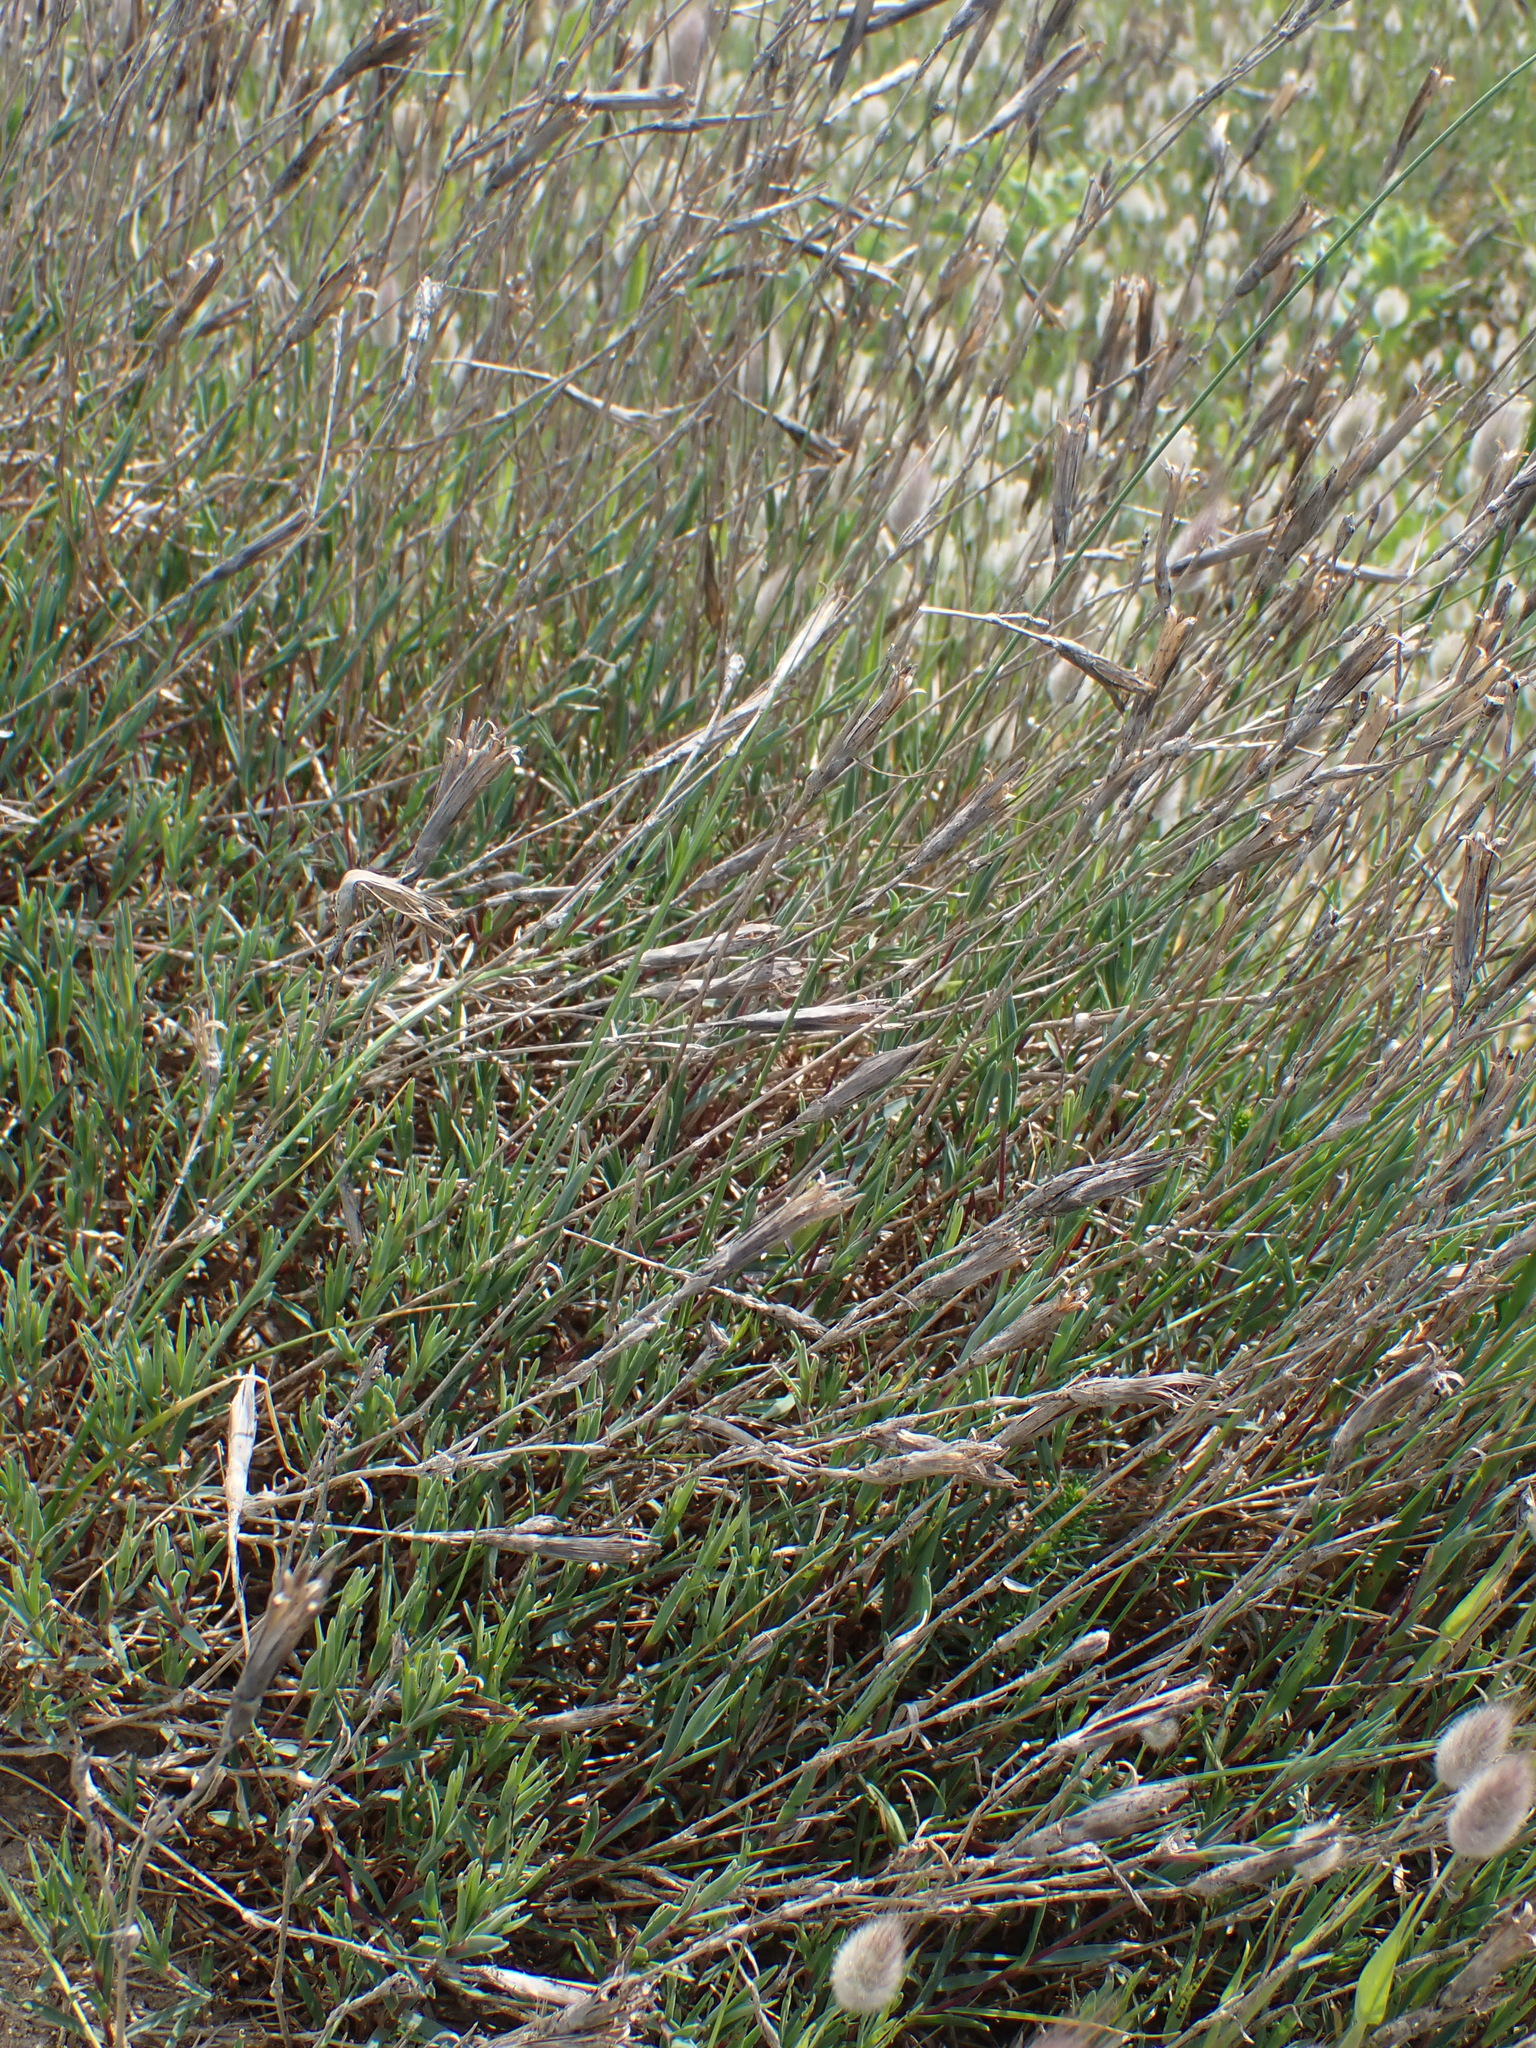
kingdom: Plantae
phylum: Tracheophyta
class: Magnoliopsida
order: Caryophyllales
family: Caryophyllaceae
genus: Dianthus
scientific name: Dianthus gallicus
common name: Jersey pink
